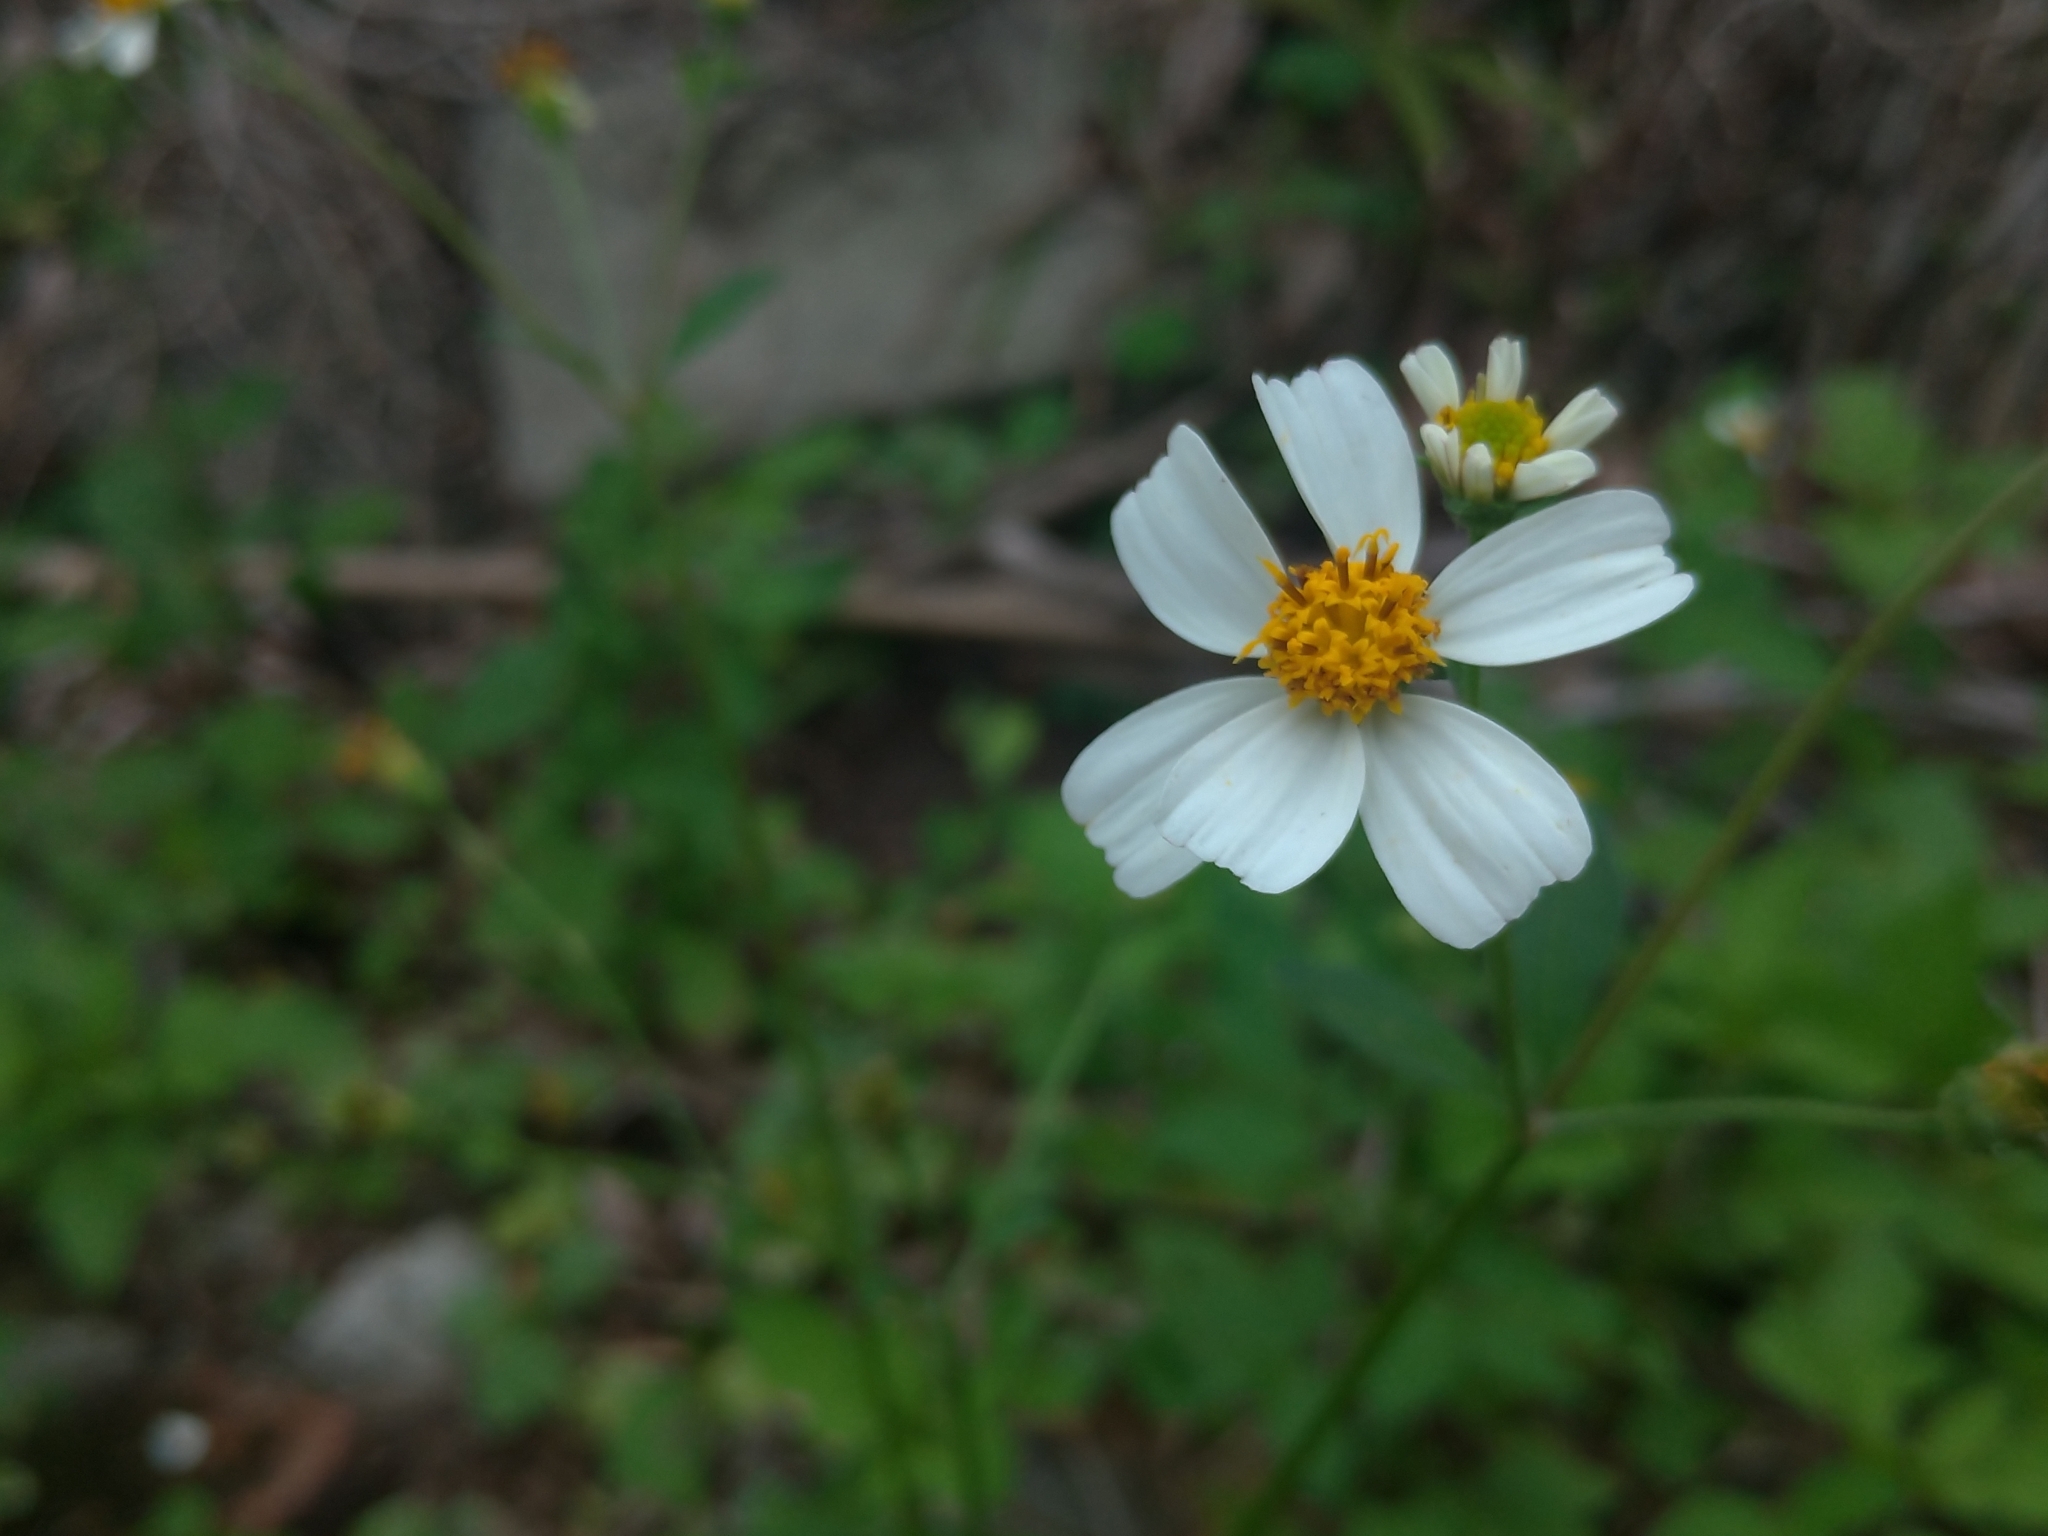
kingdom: Plantae
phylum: Tracheophyta
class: Magnoliopsida
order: Asterales
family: Asteraceae
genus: Bidens
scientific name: Bidens alba
